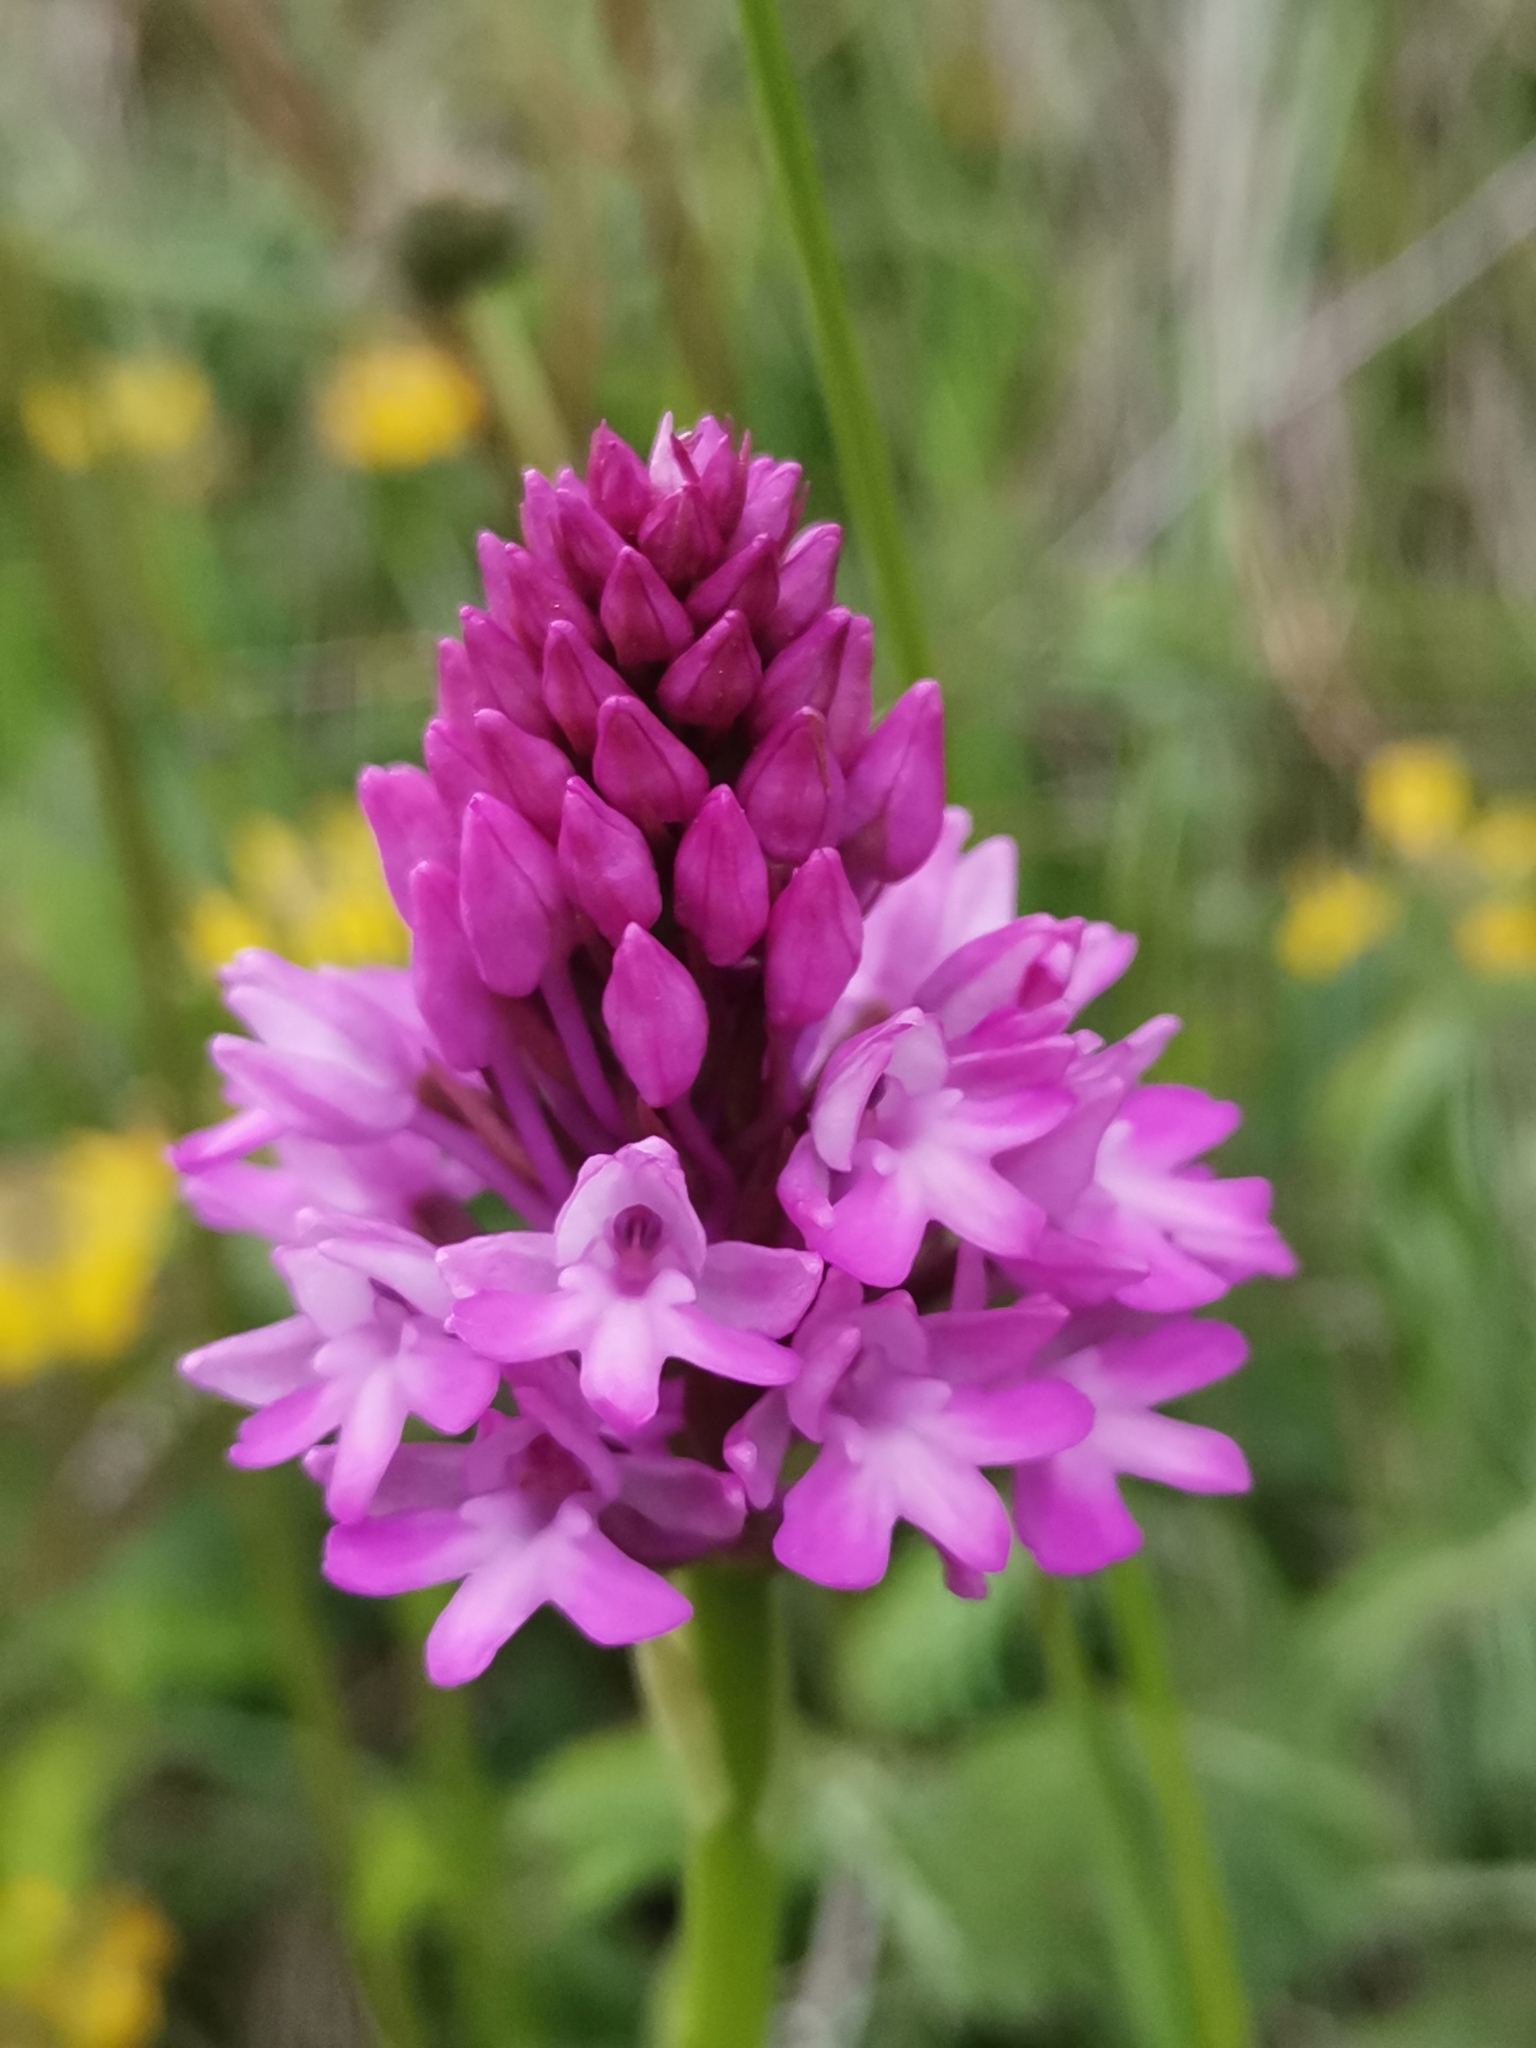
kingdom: Plantae
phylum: Tracheophyta
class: Liliopsida
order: Asparagales
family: Orchidaceae
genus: Anacamptis
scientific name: Anacamptis pyramidalis
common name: Pyramidal orchid
